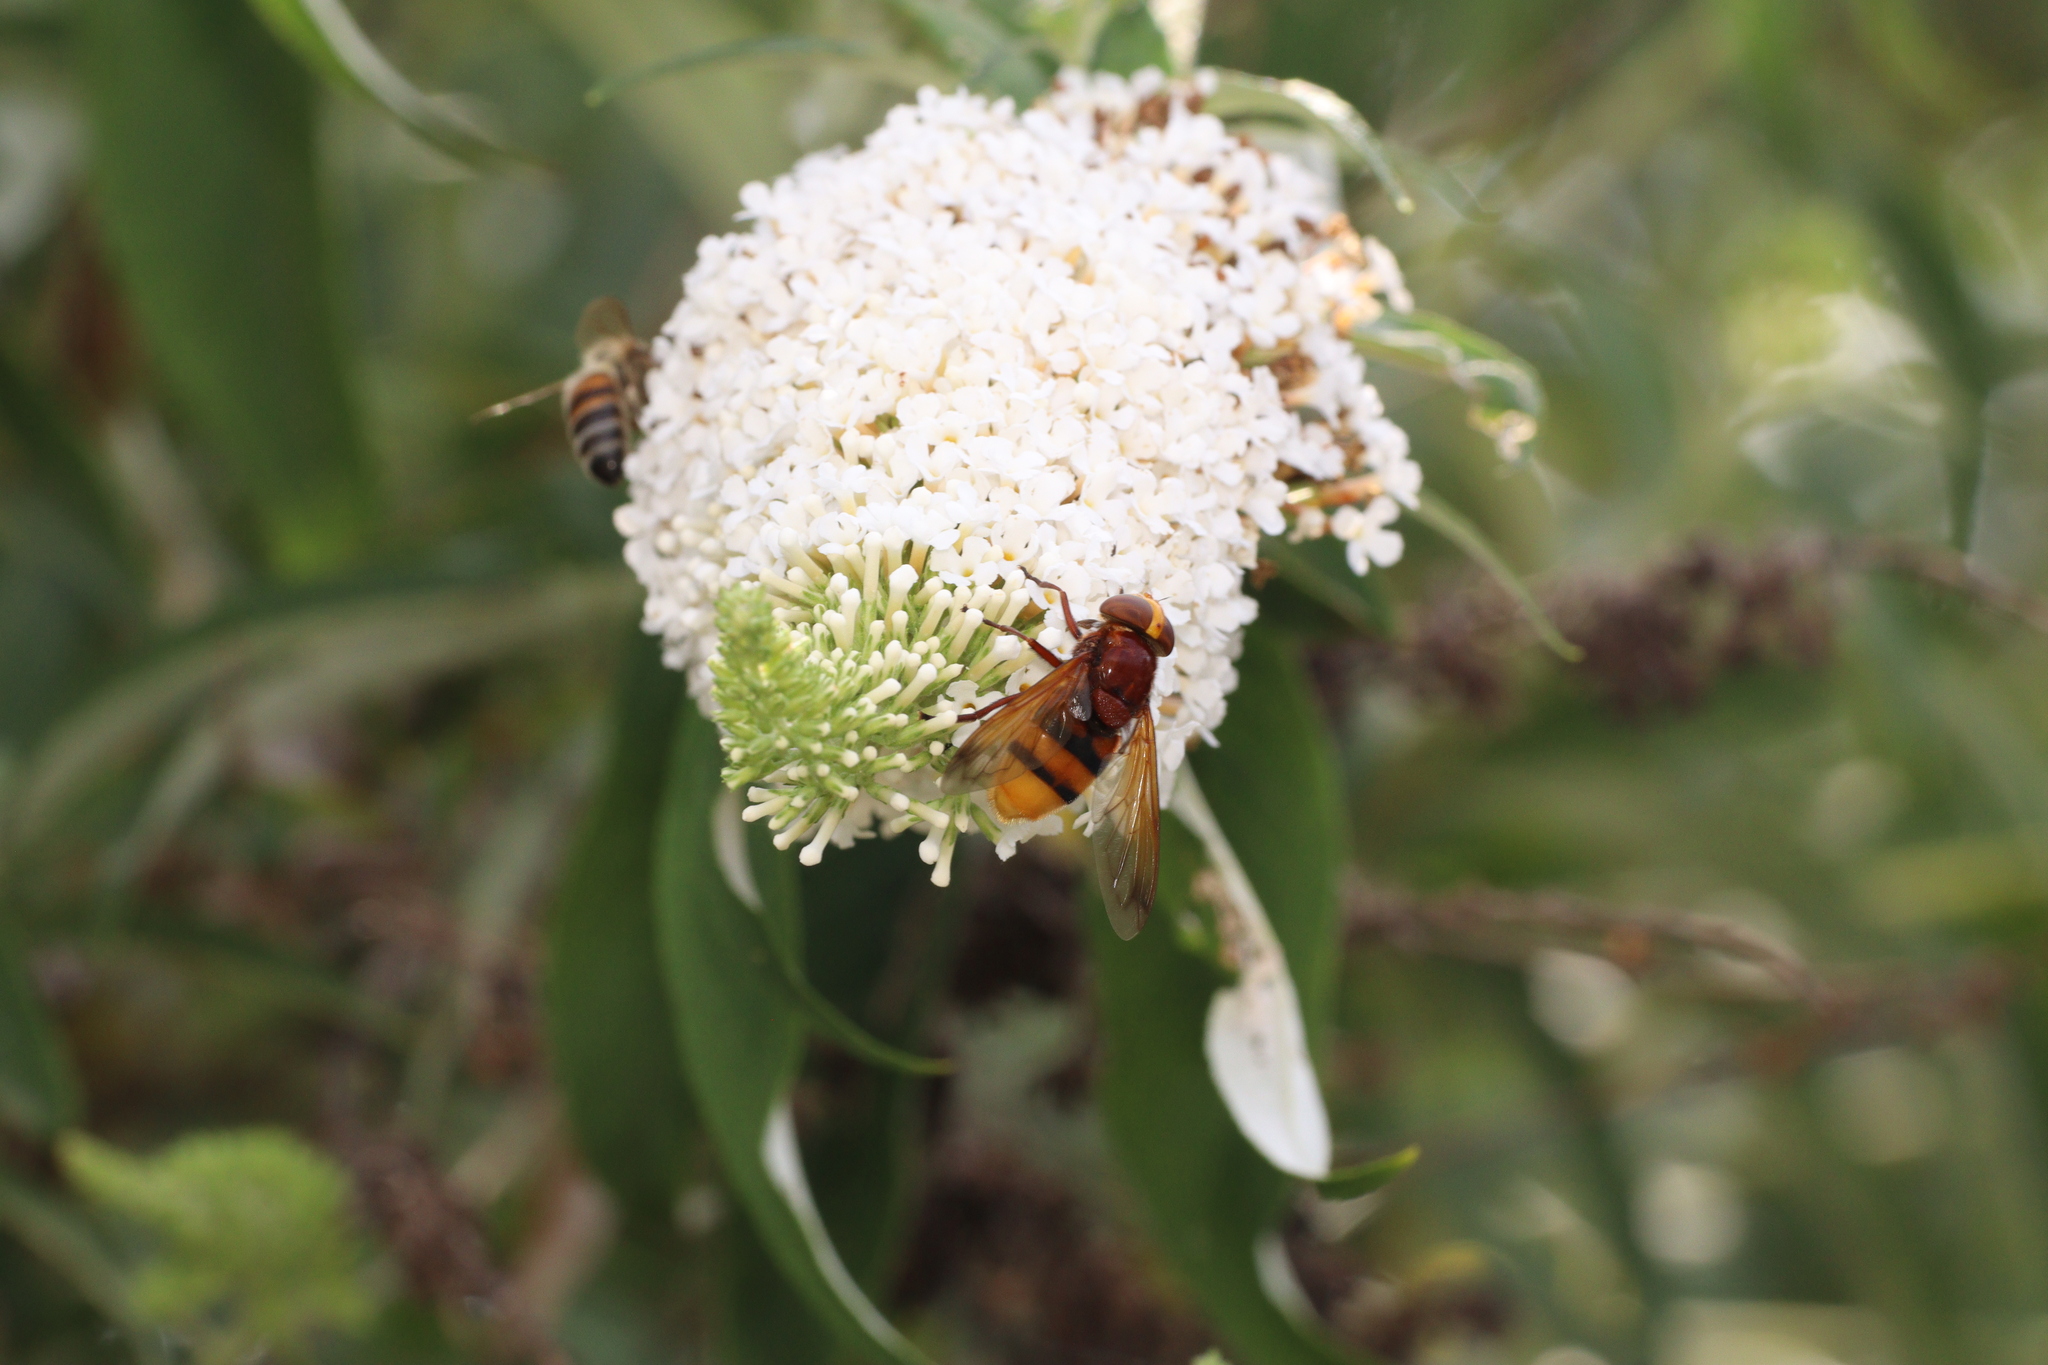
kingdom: Animalia
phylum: Arthropoda
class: Insecta
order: Diptera
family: Syrphidae
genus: Volucella
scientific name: Volucella zonaria
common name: Hornet hoverfly
